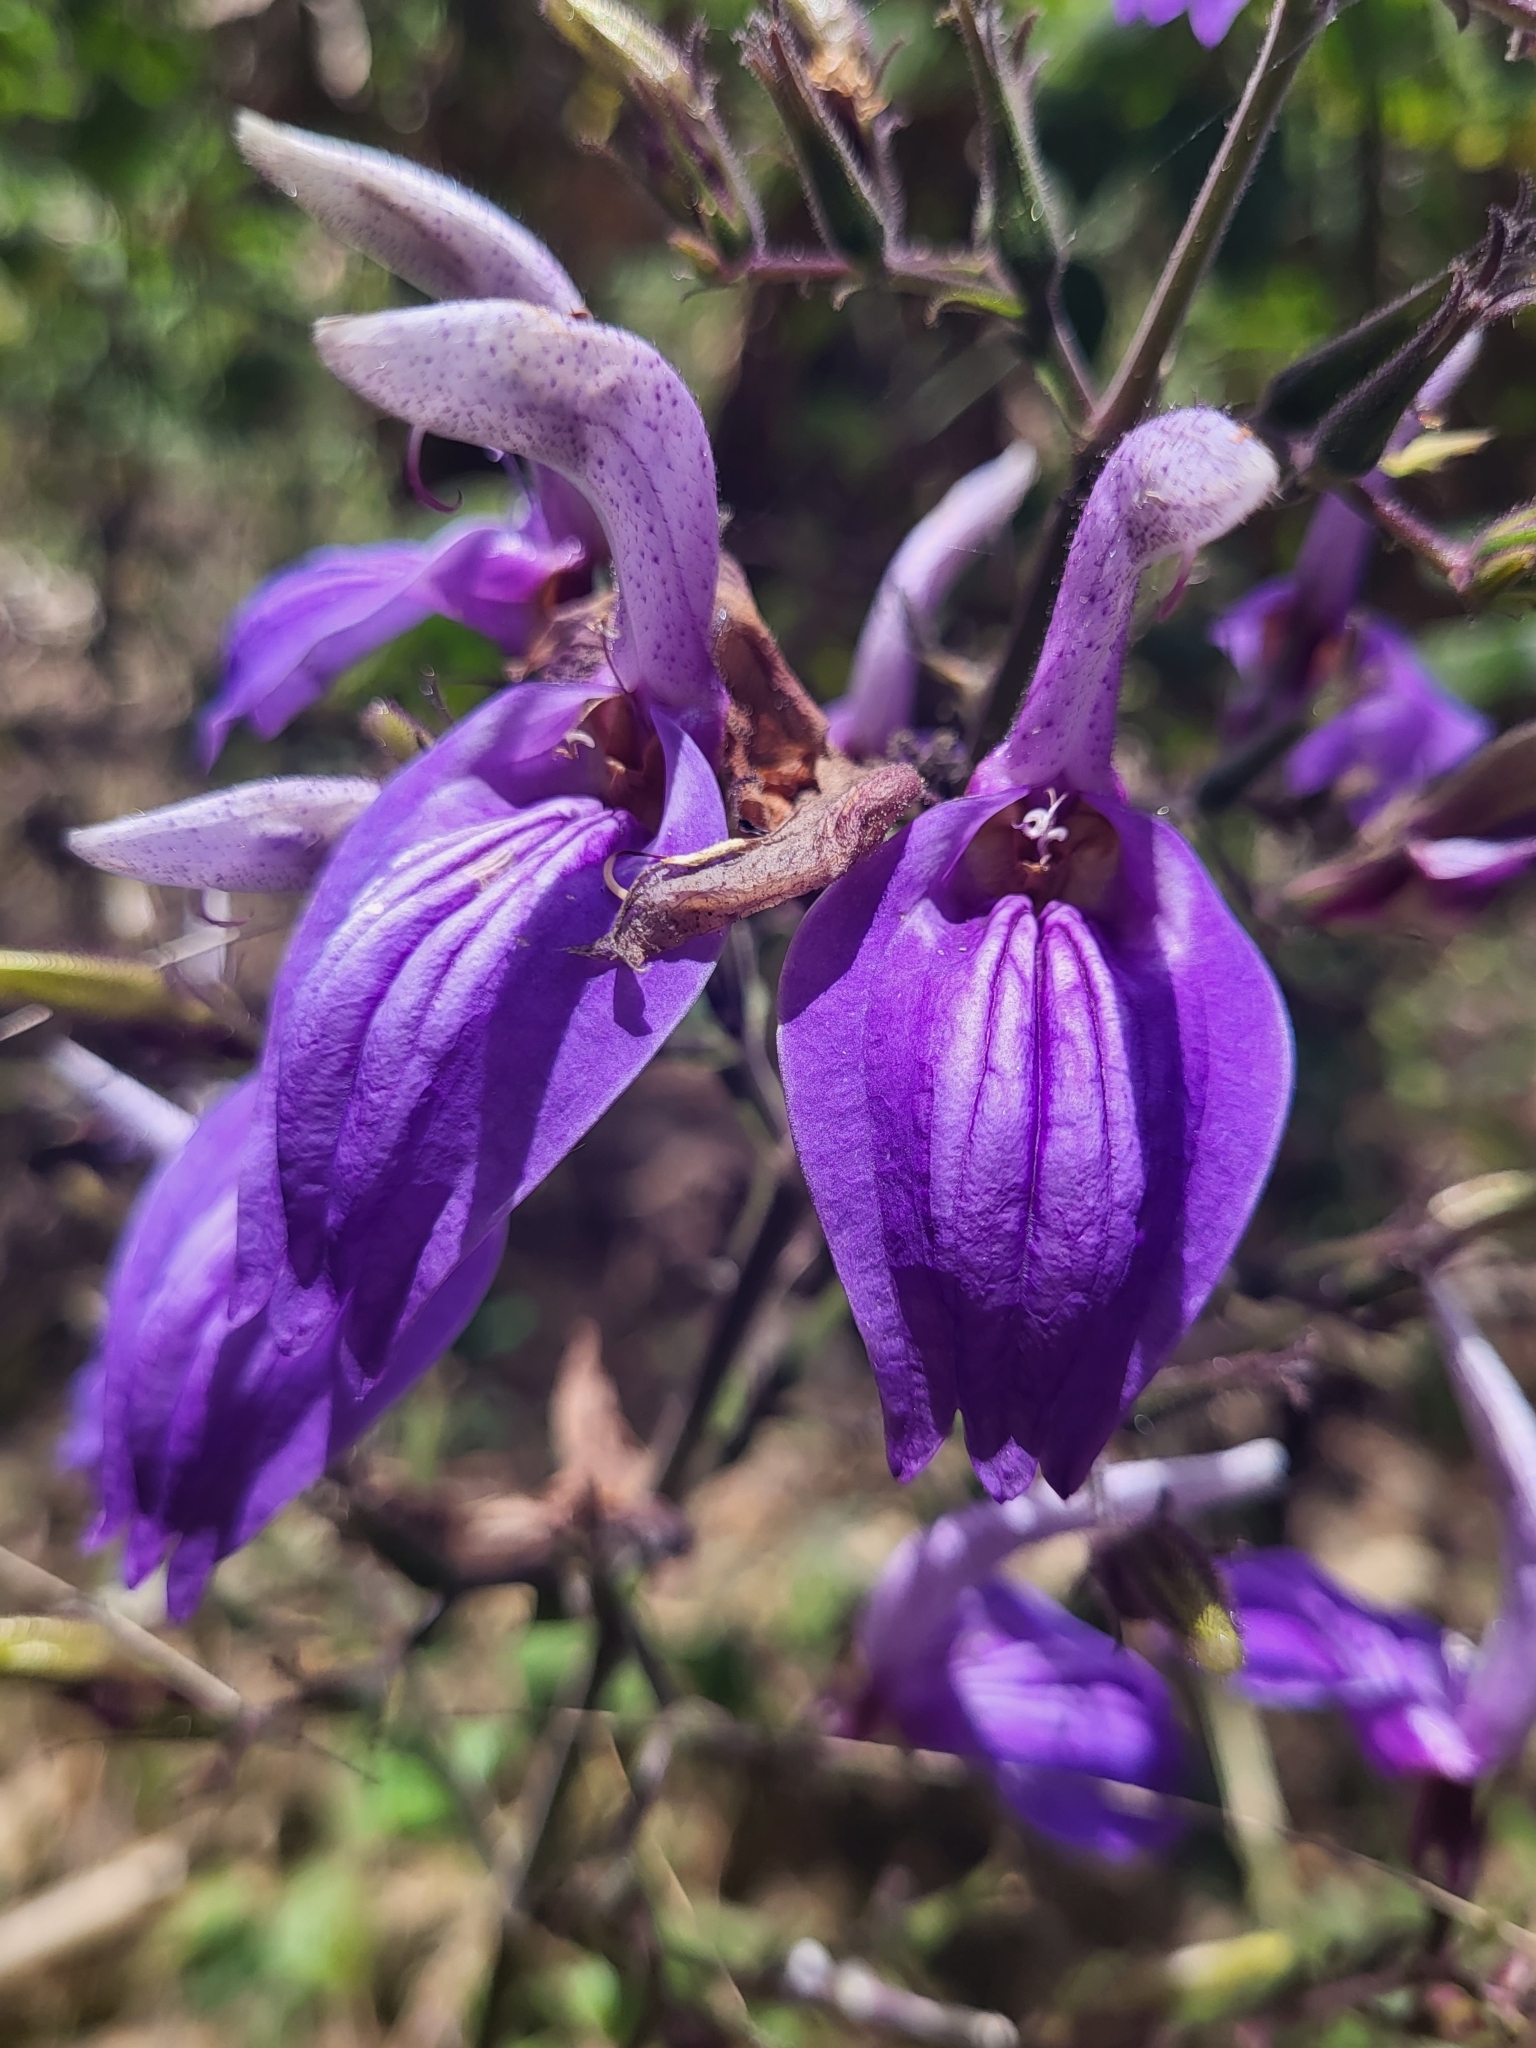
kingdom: Plantae
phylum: Tracheophyta
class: Magnoliopsida
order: Lamiales
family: Acanthaceae
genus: Brillantaisia
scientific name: Brillantaisia owariensis
